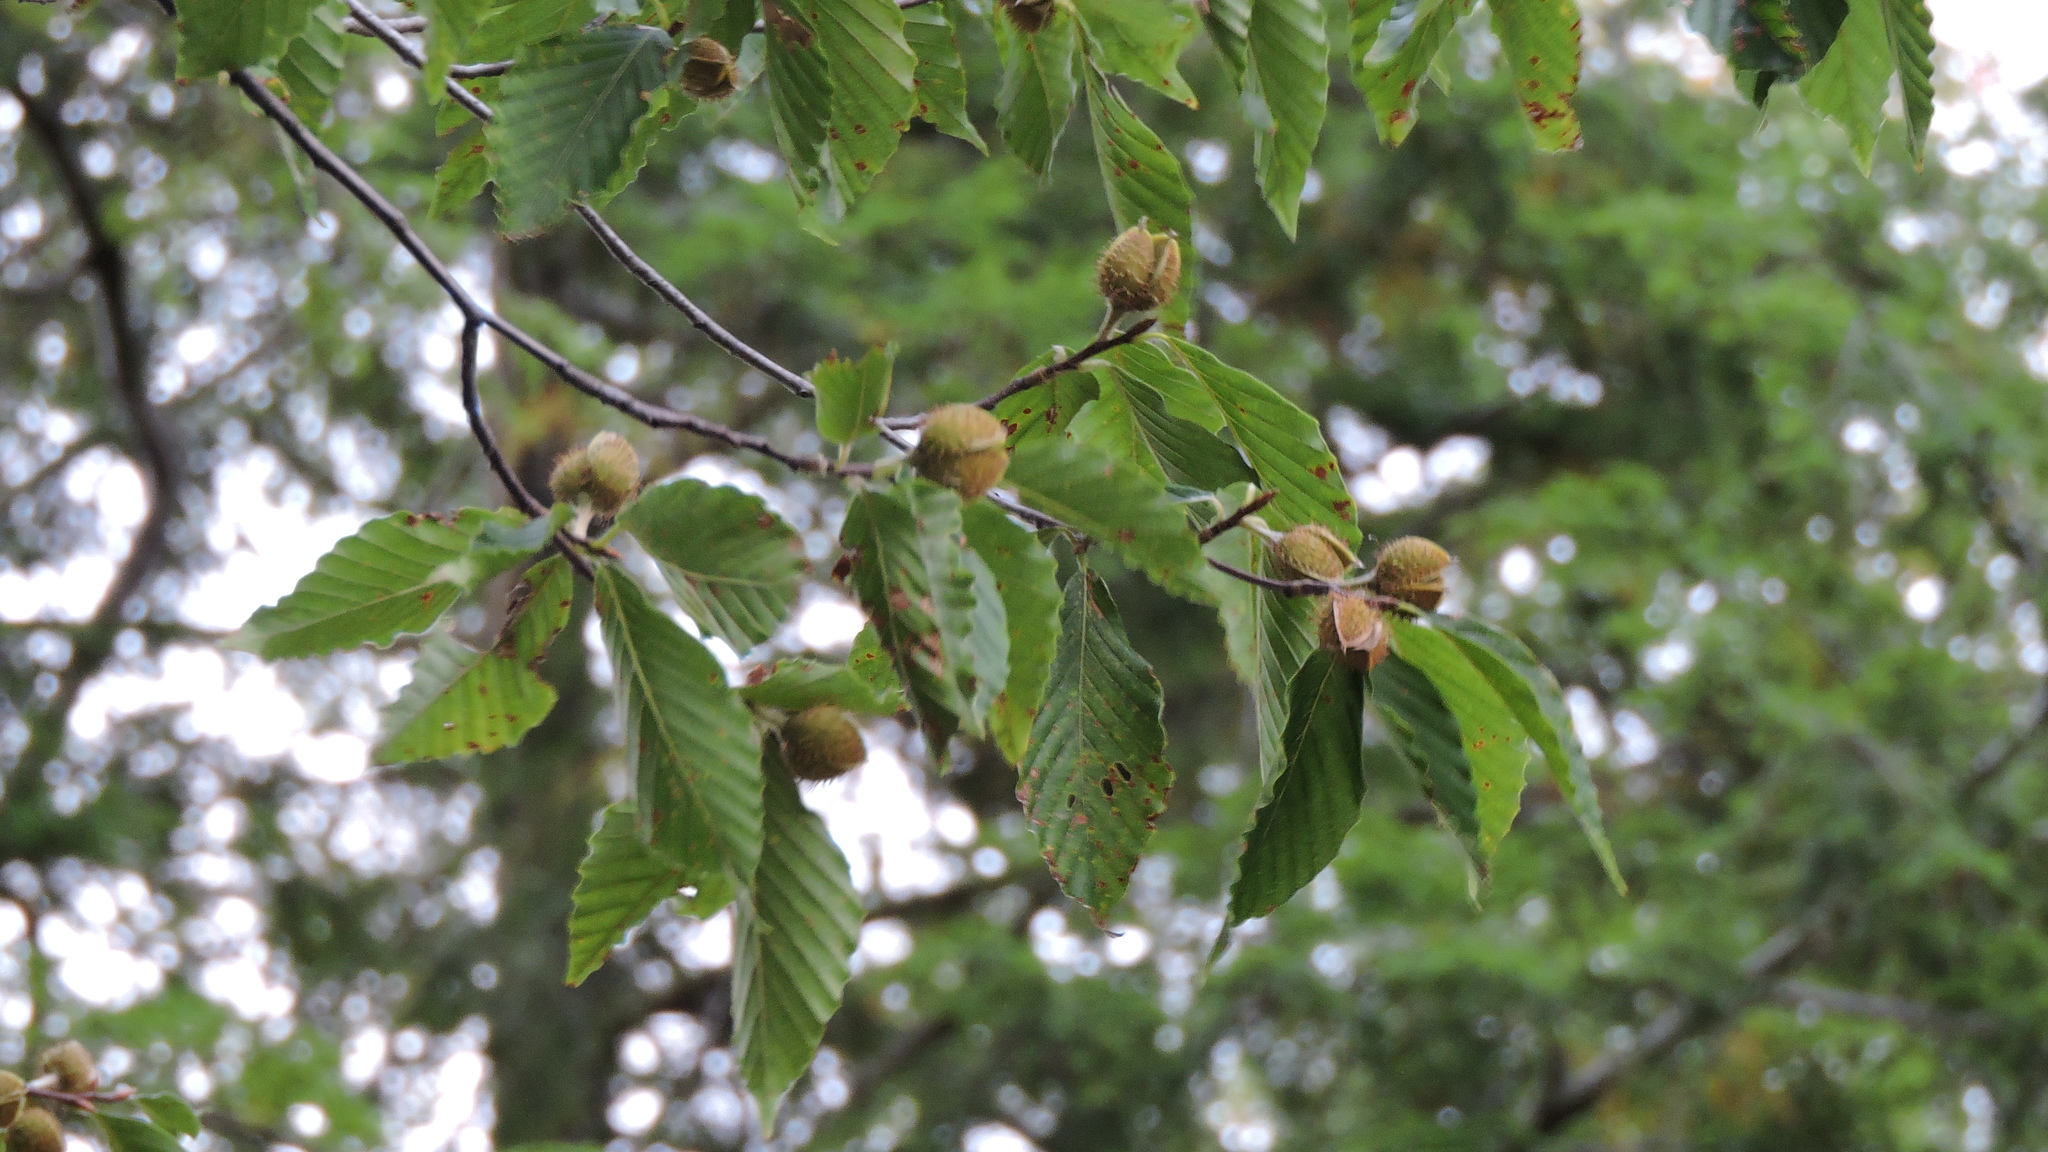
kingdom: Plantae
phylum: Tracheophyta
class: Magnoliopsida
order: Fagales
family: Fagaceae
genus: Fagus
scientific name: Fagus grandifolia
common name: American beech
